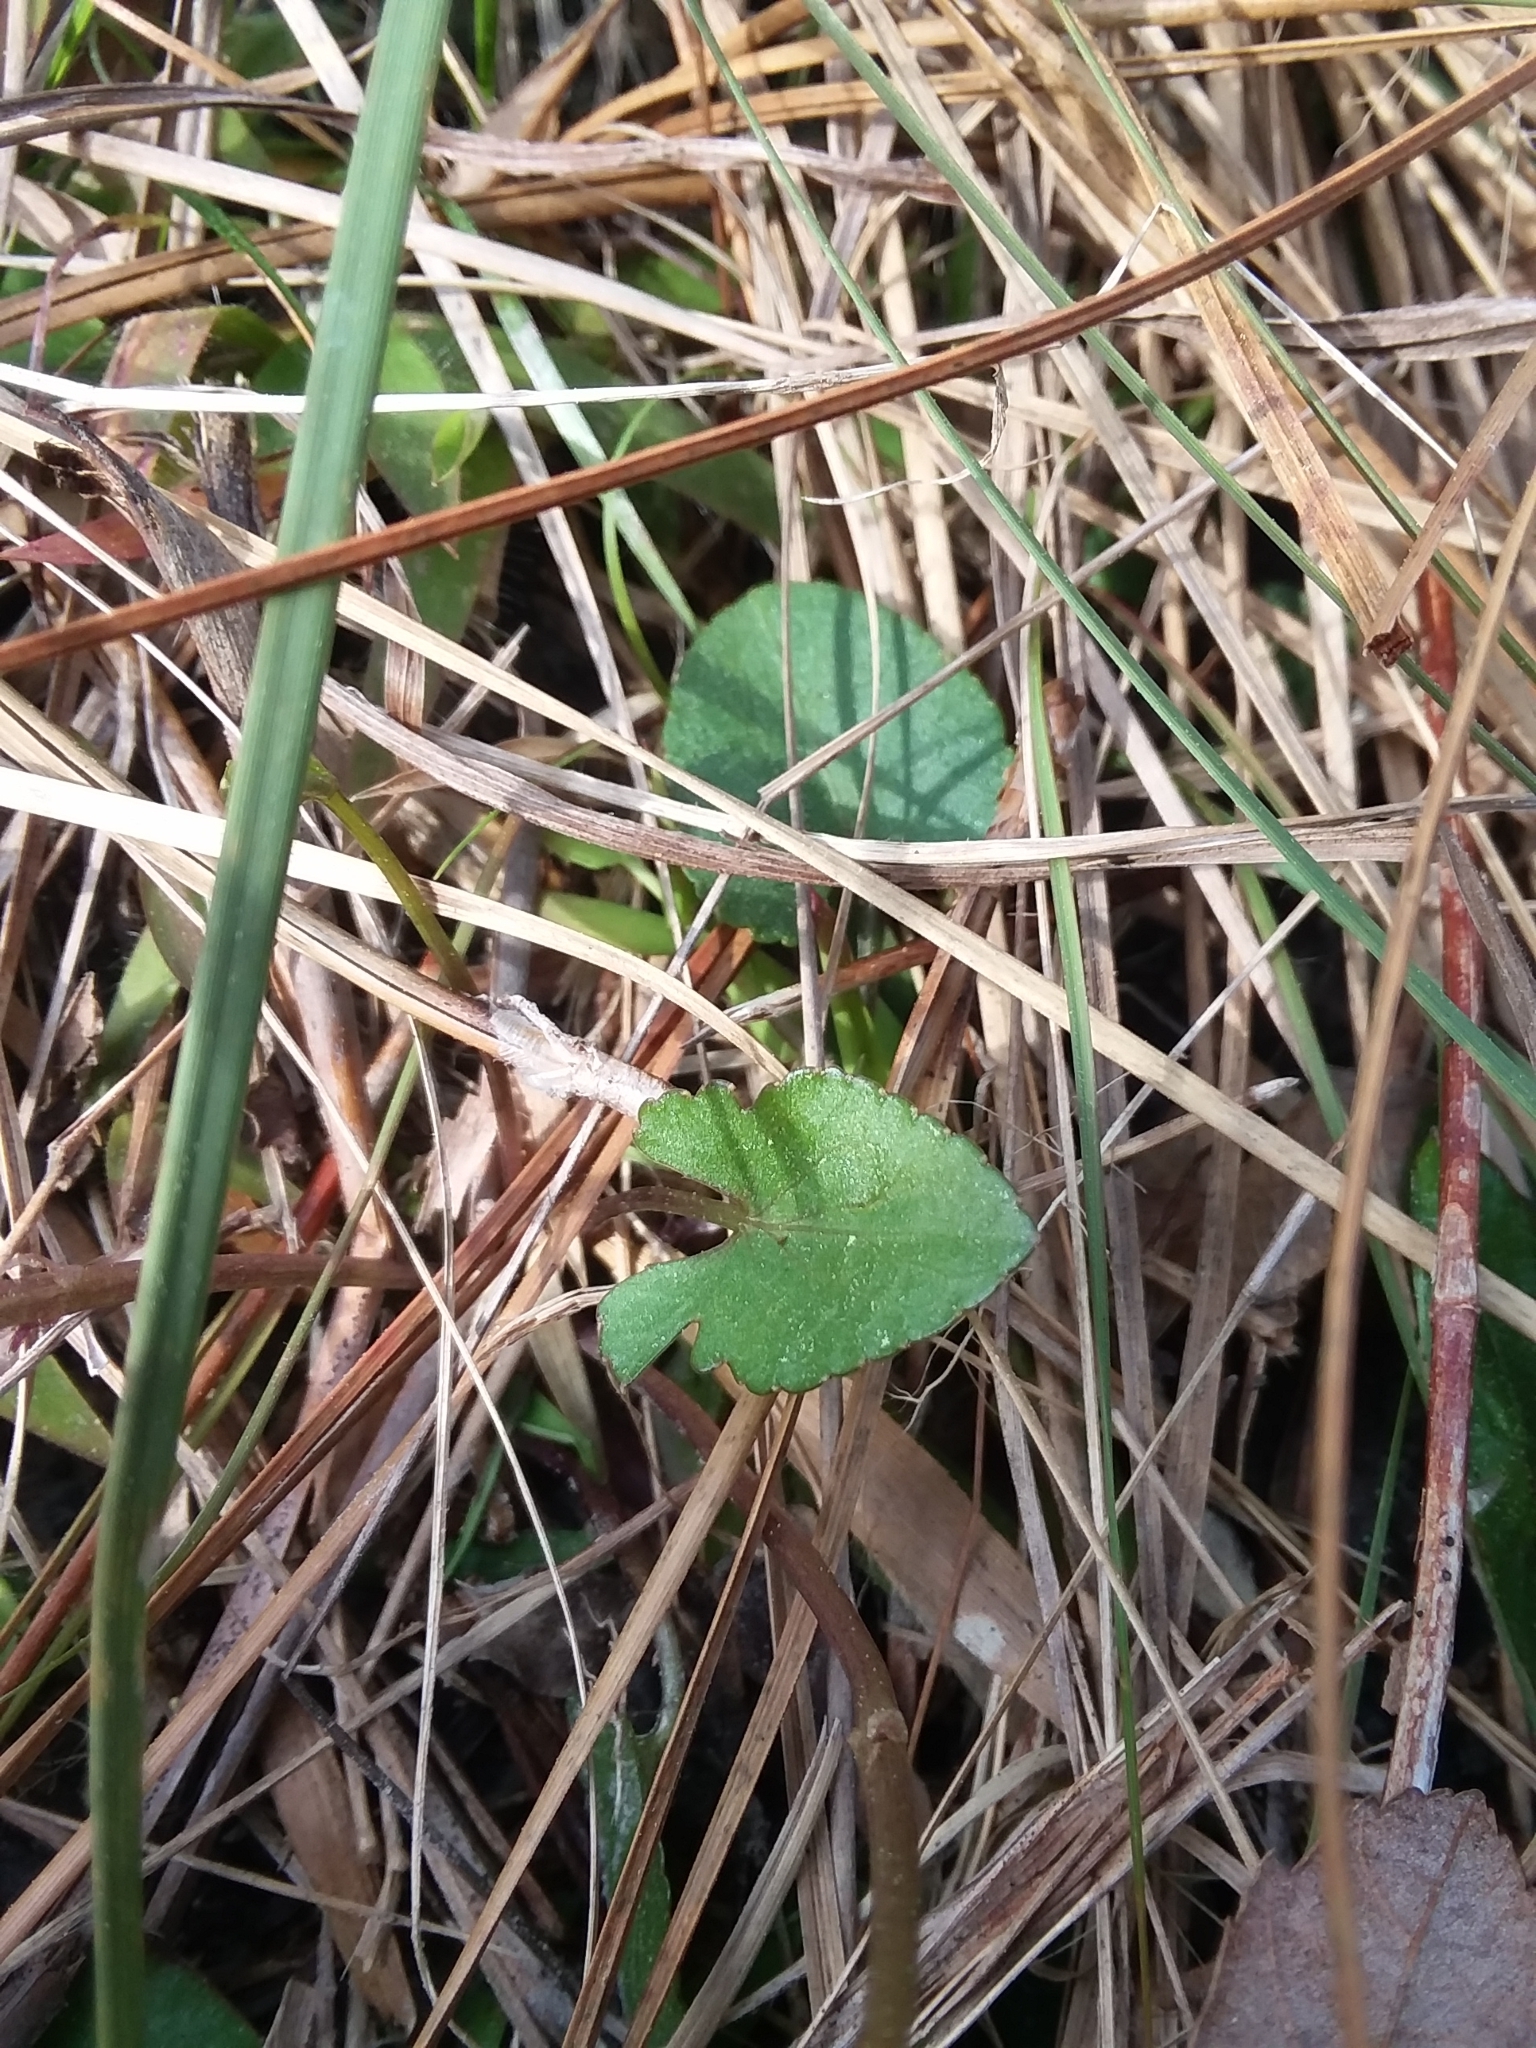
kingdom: Plantae
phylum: Tracheophyta
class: Magnoliopsida
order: Malpighiales
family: Violaceae
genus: Viola
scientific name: Viola septemloba
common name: Southern coast violet
